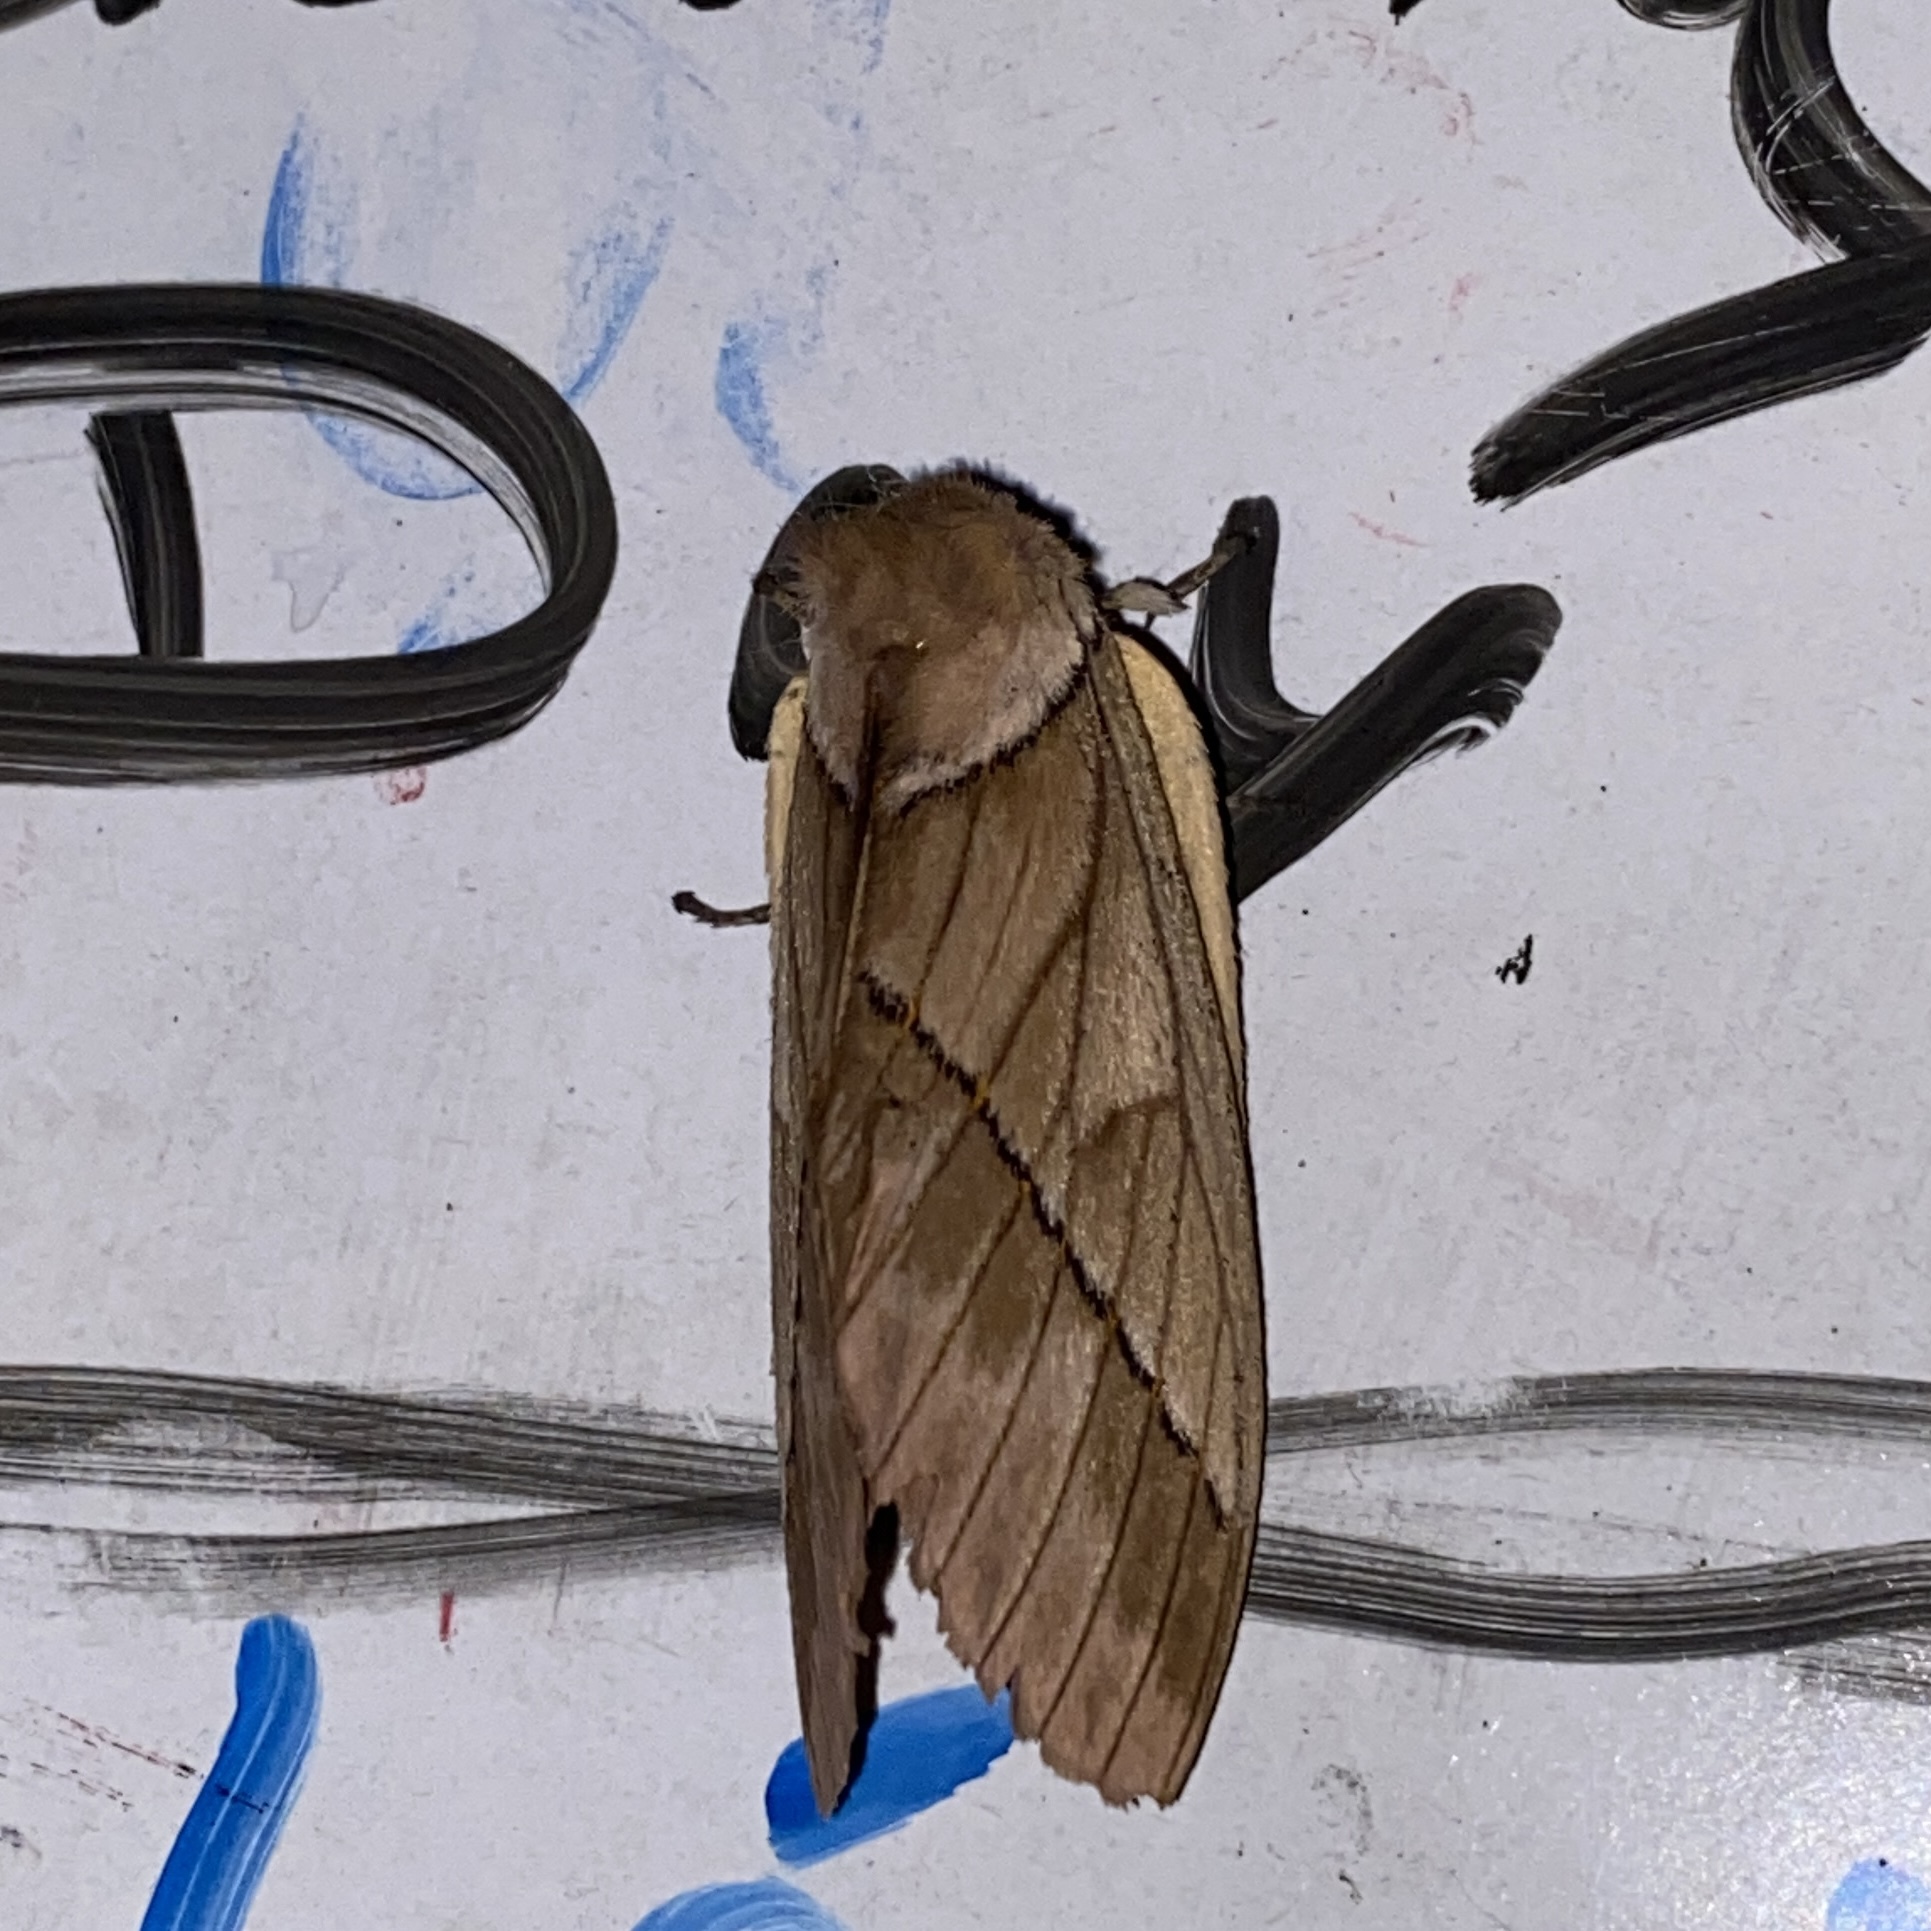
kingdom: Animalia
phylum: Arthropoda
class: Insecta
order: Lepidoptera
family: Saturniidae
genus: Pseudodirphia
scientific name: Pseudodirphia obliqua
